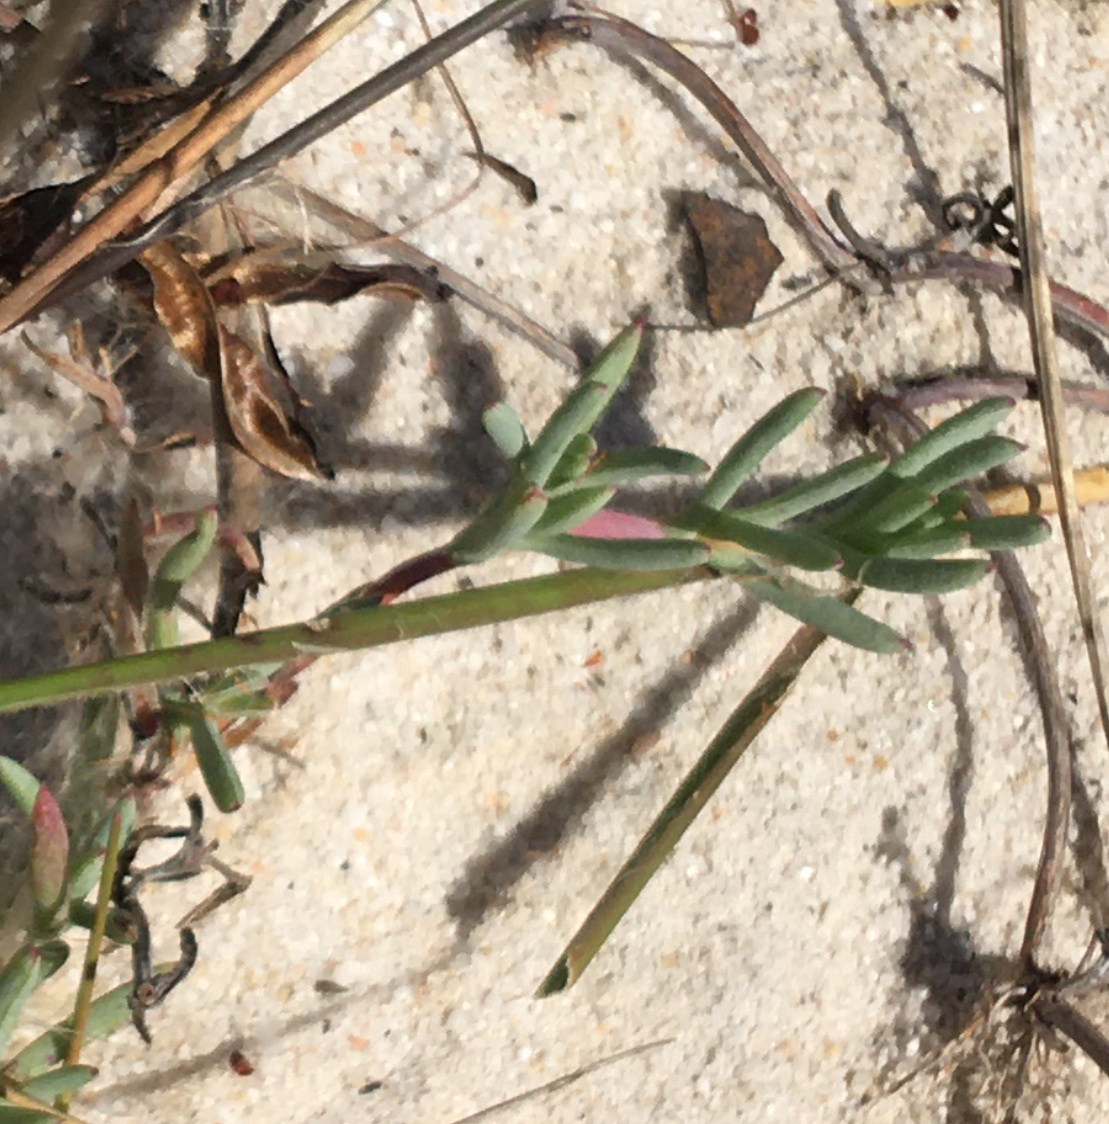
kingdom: Plantae
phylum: Tracheophyta
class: Magnoliopsida
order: Caryophyllales
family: Aizoaceae
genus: Lampranthus
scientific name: Lampranthus explanatus
